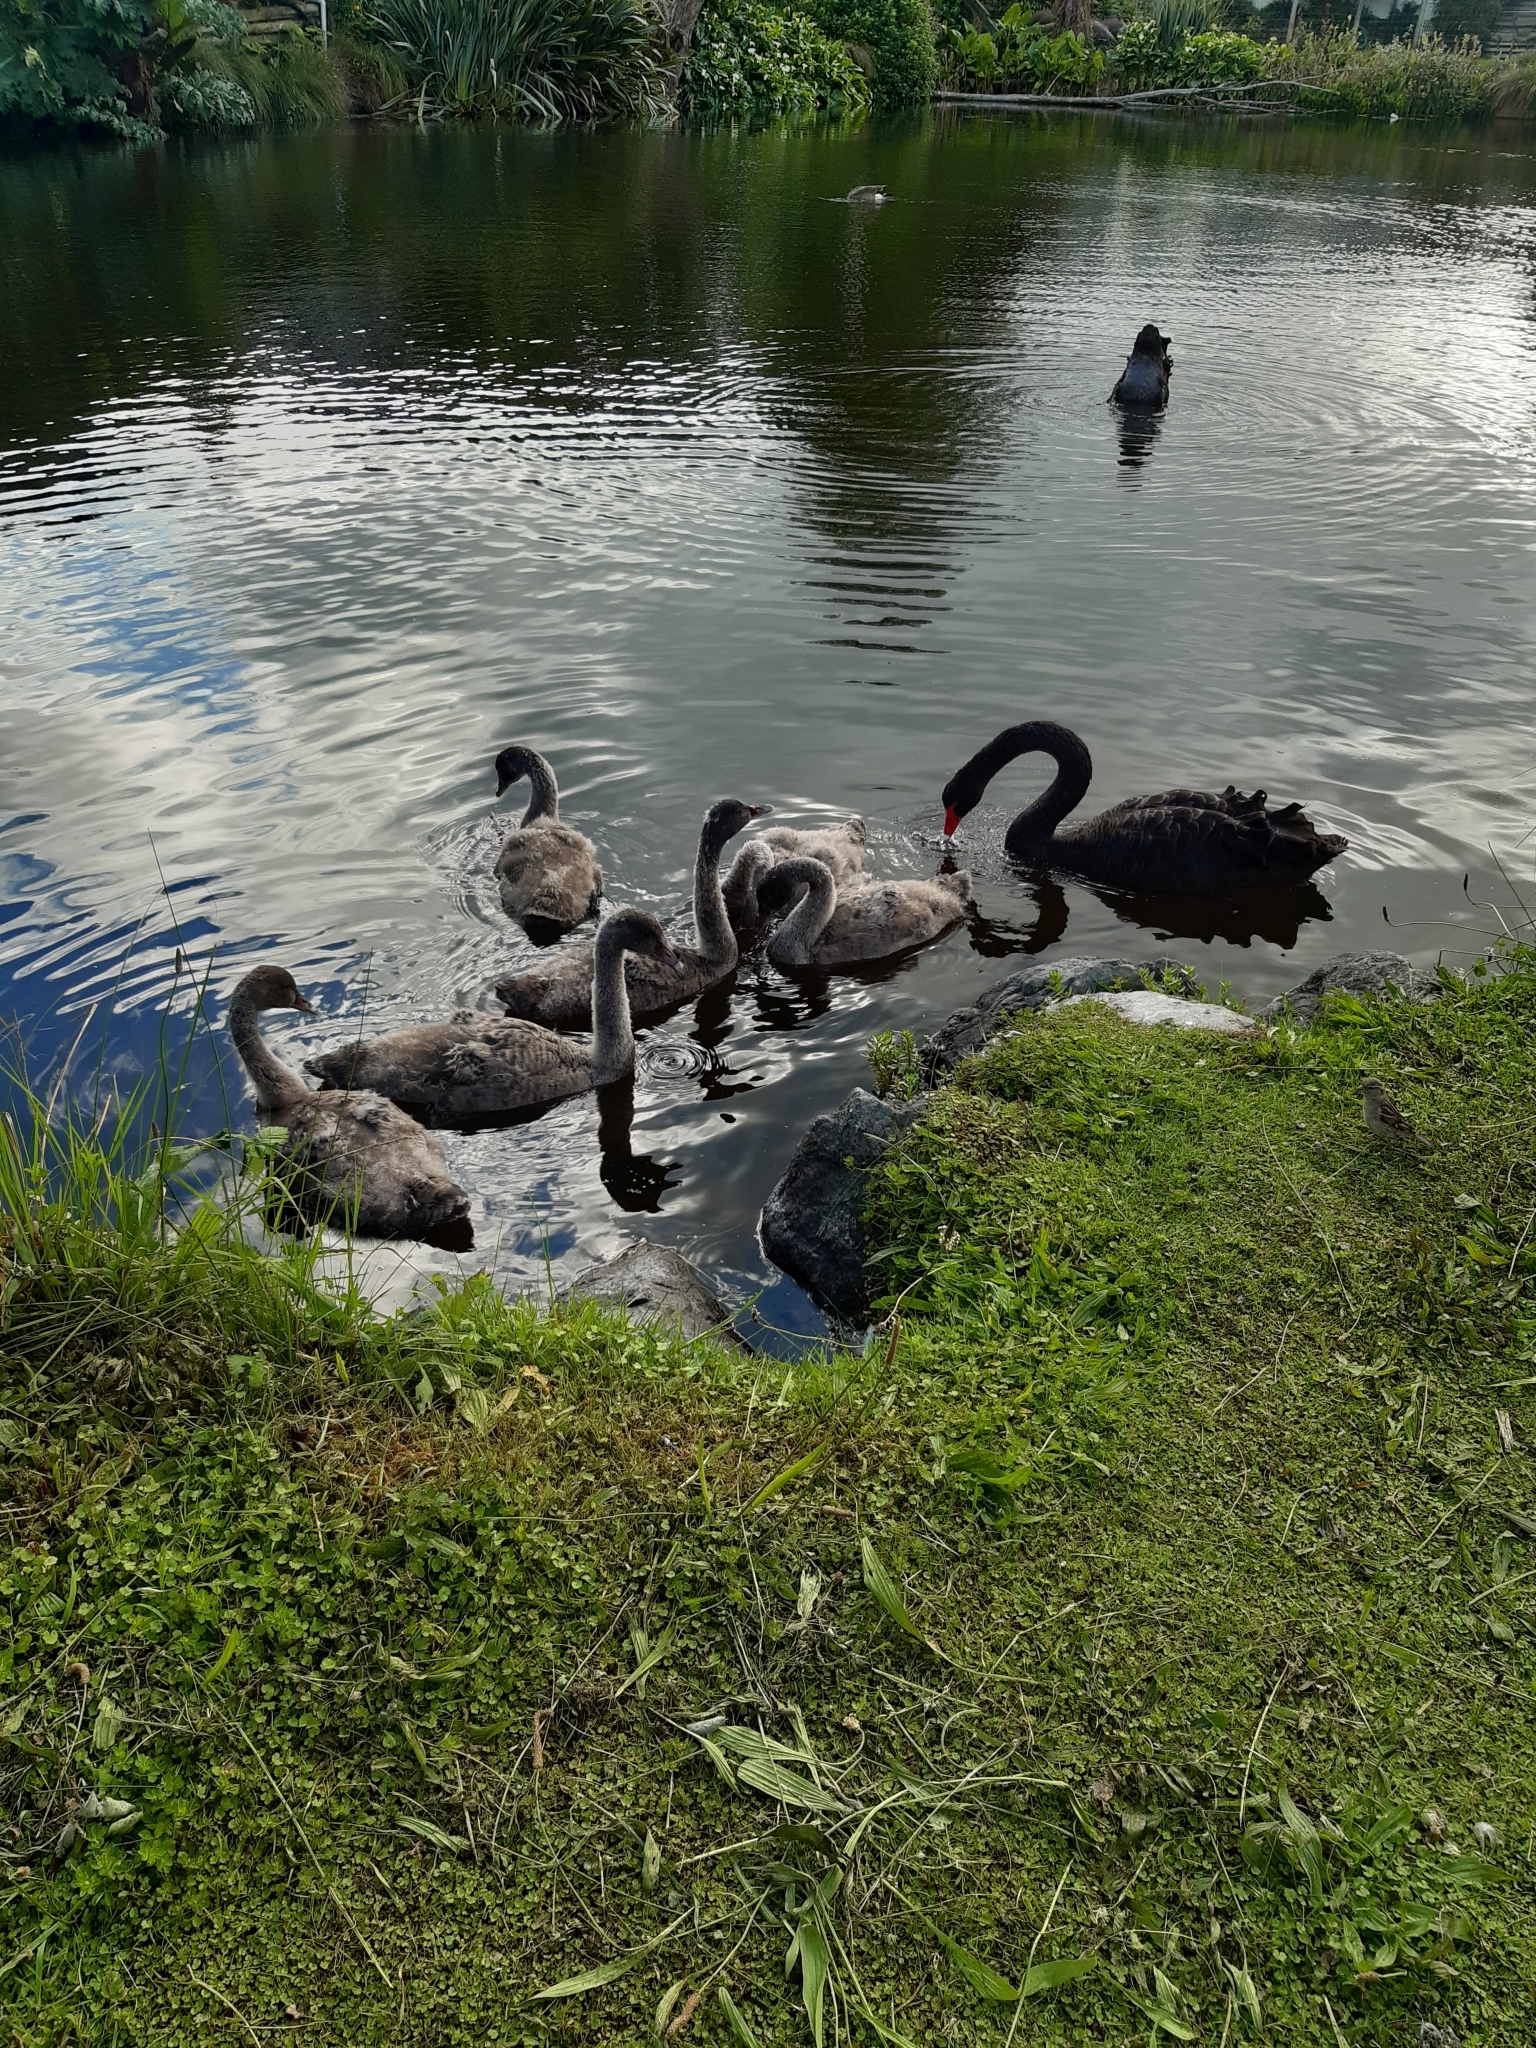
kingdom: Animalia
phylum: Chordata
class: Aves
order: Anseriformes
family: Anatidae
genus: Cygnus
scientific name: Cygnus atratus
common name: Black swan
